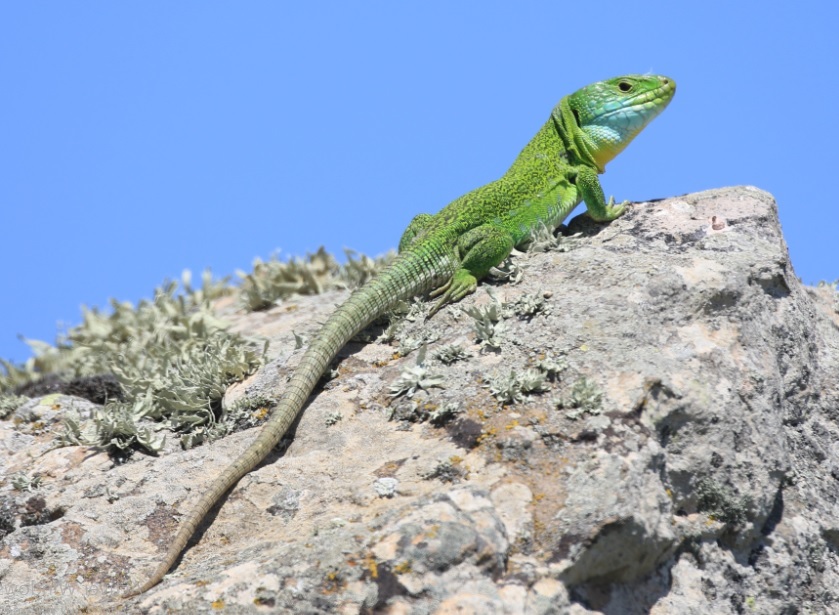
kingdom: Animalia
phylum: Chordata
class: Squamata
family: Lacertidae
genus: Timon
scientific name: Timon pater
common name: North african ocellated lizard
